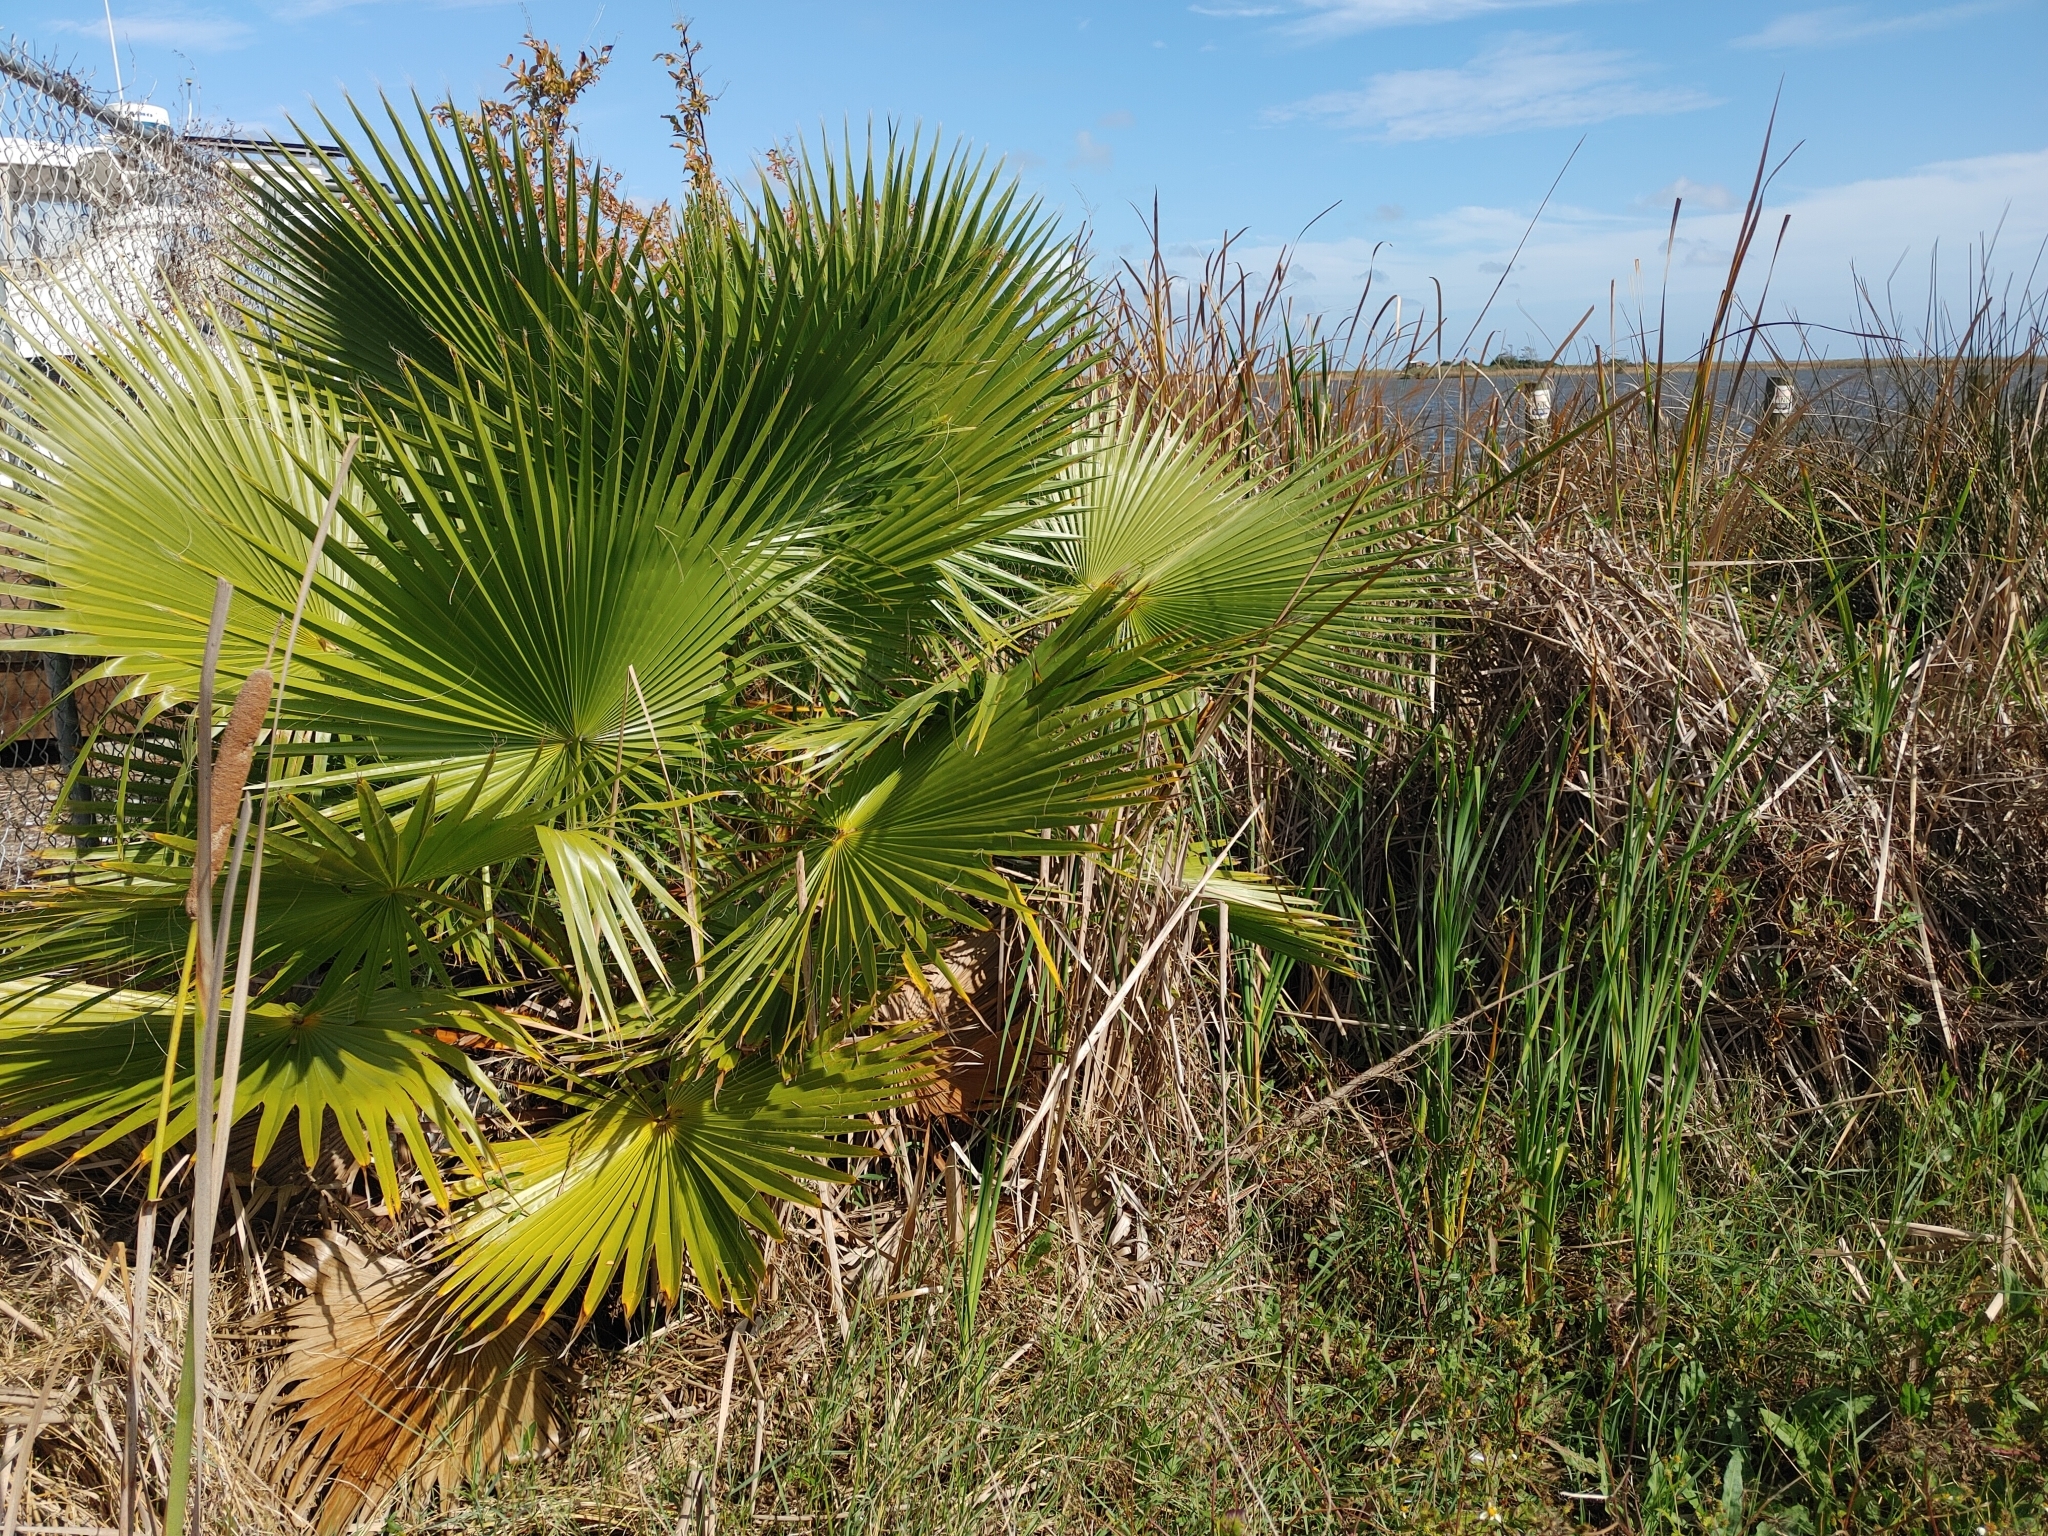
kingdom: Plantae
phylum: Tracheophyta
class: Liliopsida
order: Arecales
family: Arecaceae
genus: Washingtonia
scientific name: Washingtonia robusta
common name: Mexican fan palm
